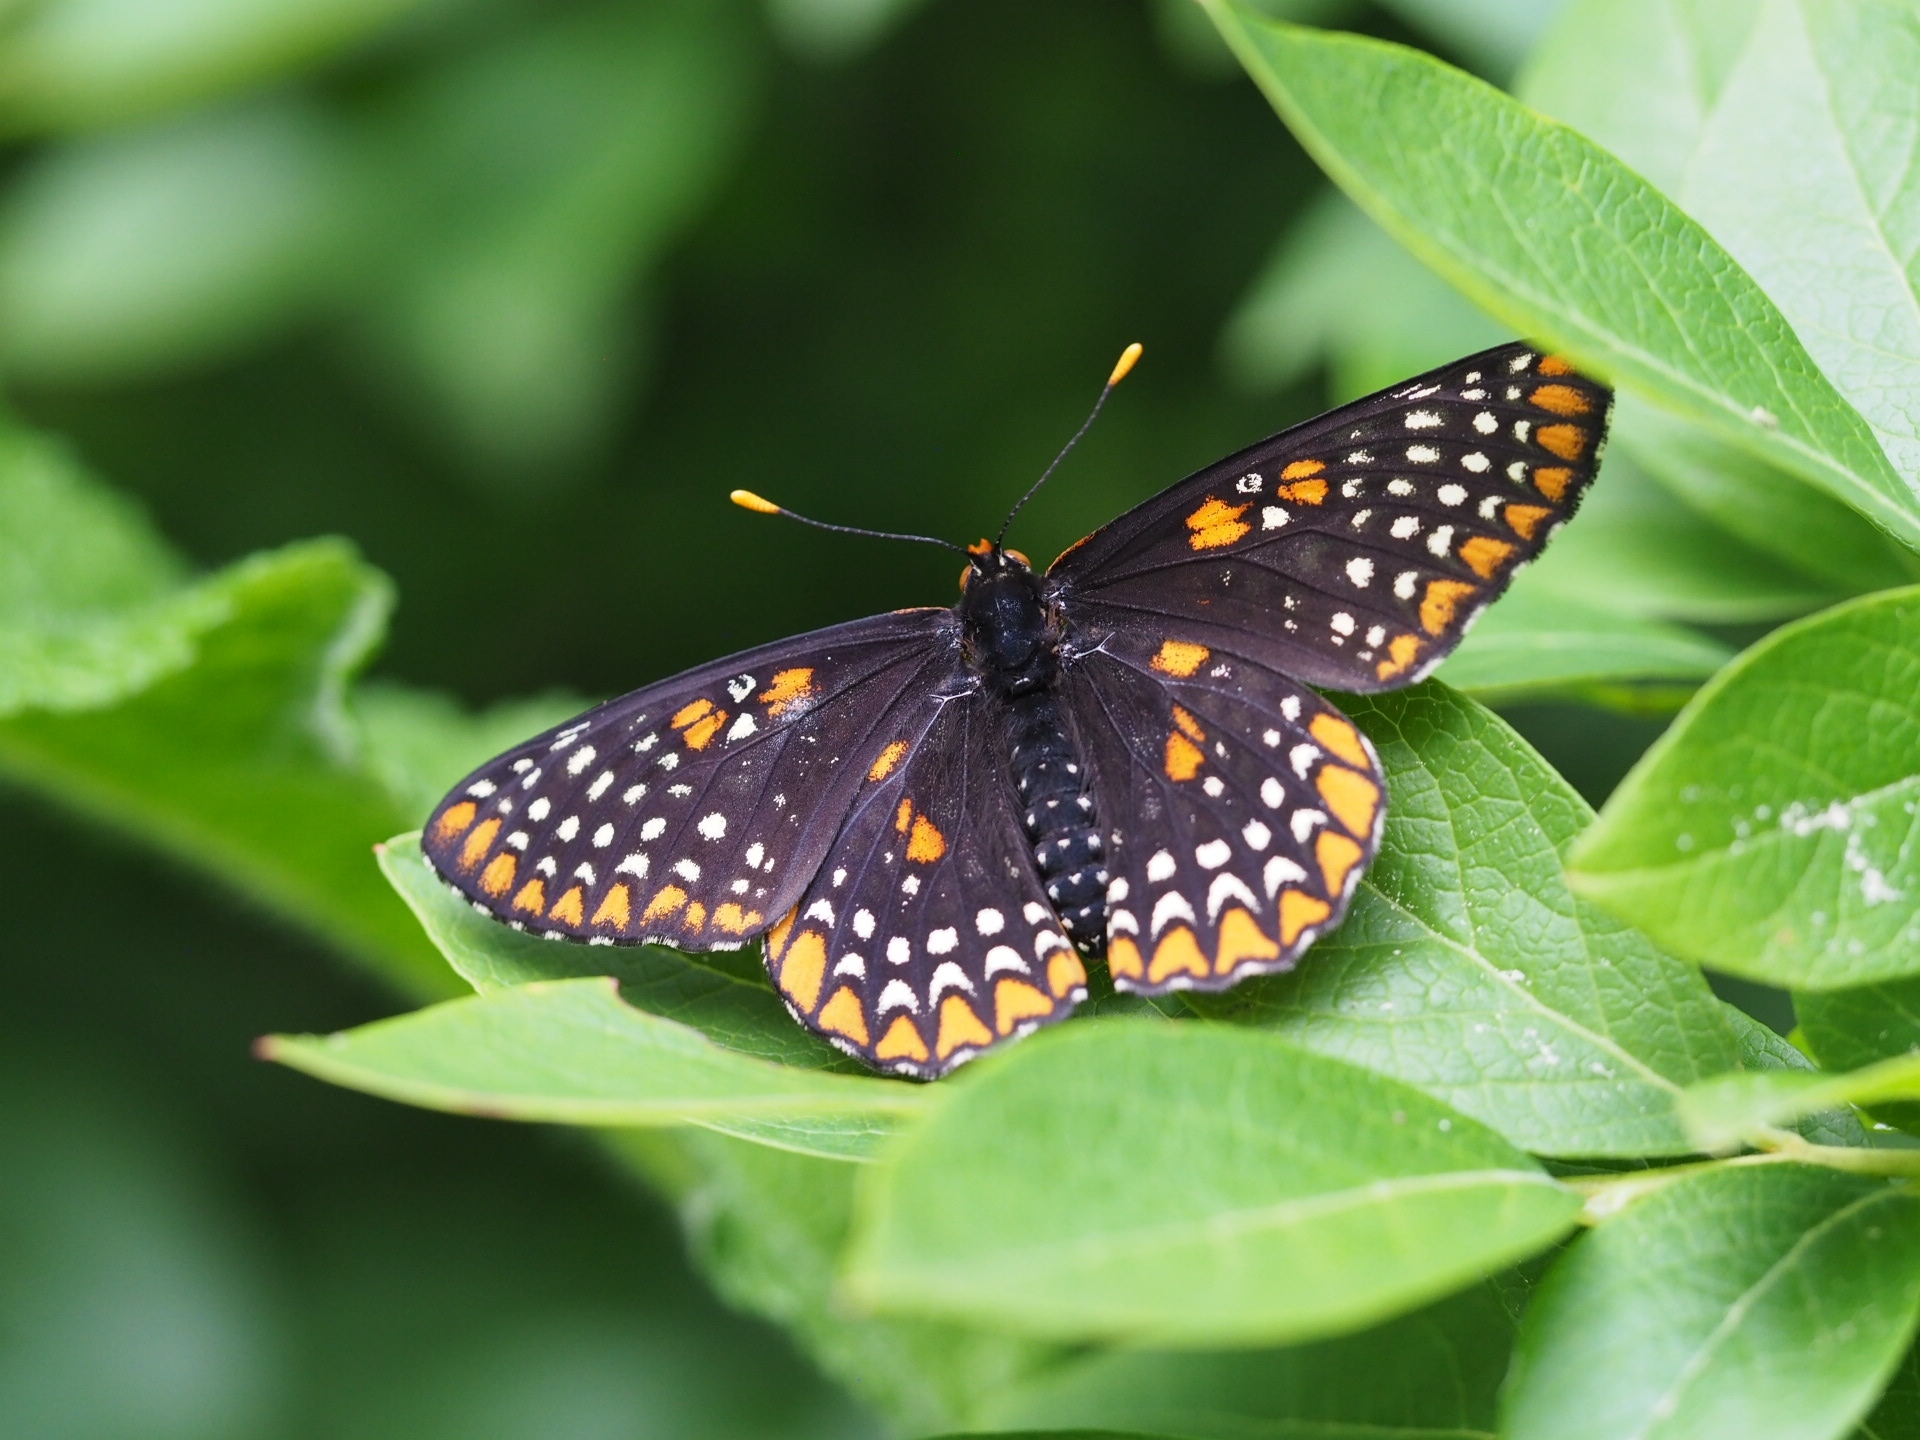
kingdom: Animalia
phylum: Arthropoda
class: Insecta
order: Lepidoptera
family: Nymphalidae
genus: Euphydryas
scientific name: Euphydryas phaeton
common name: Baltimore checkerspot
